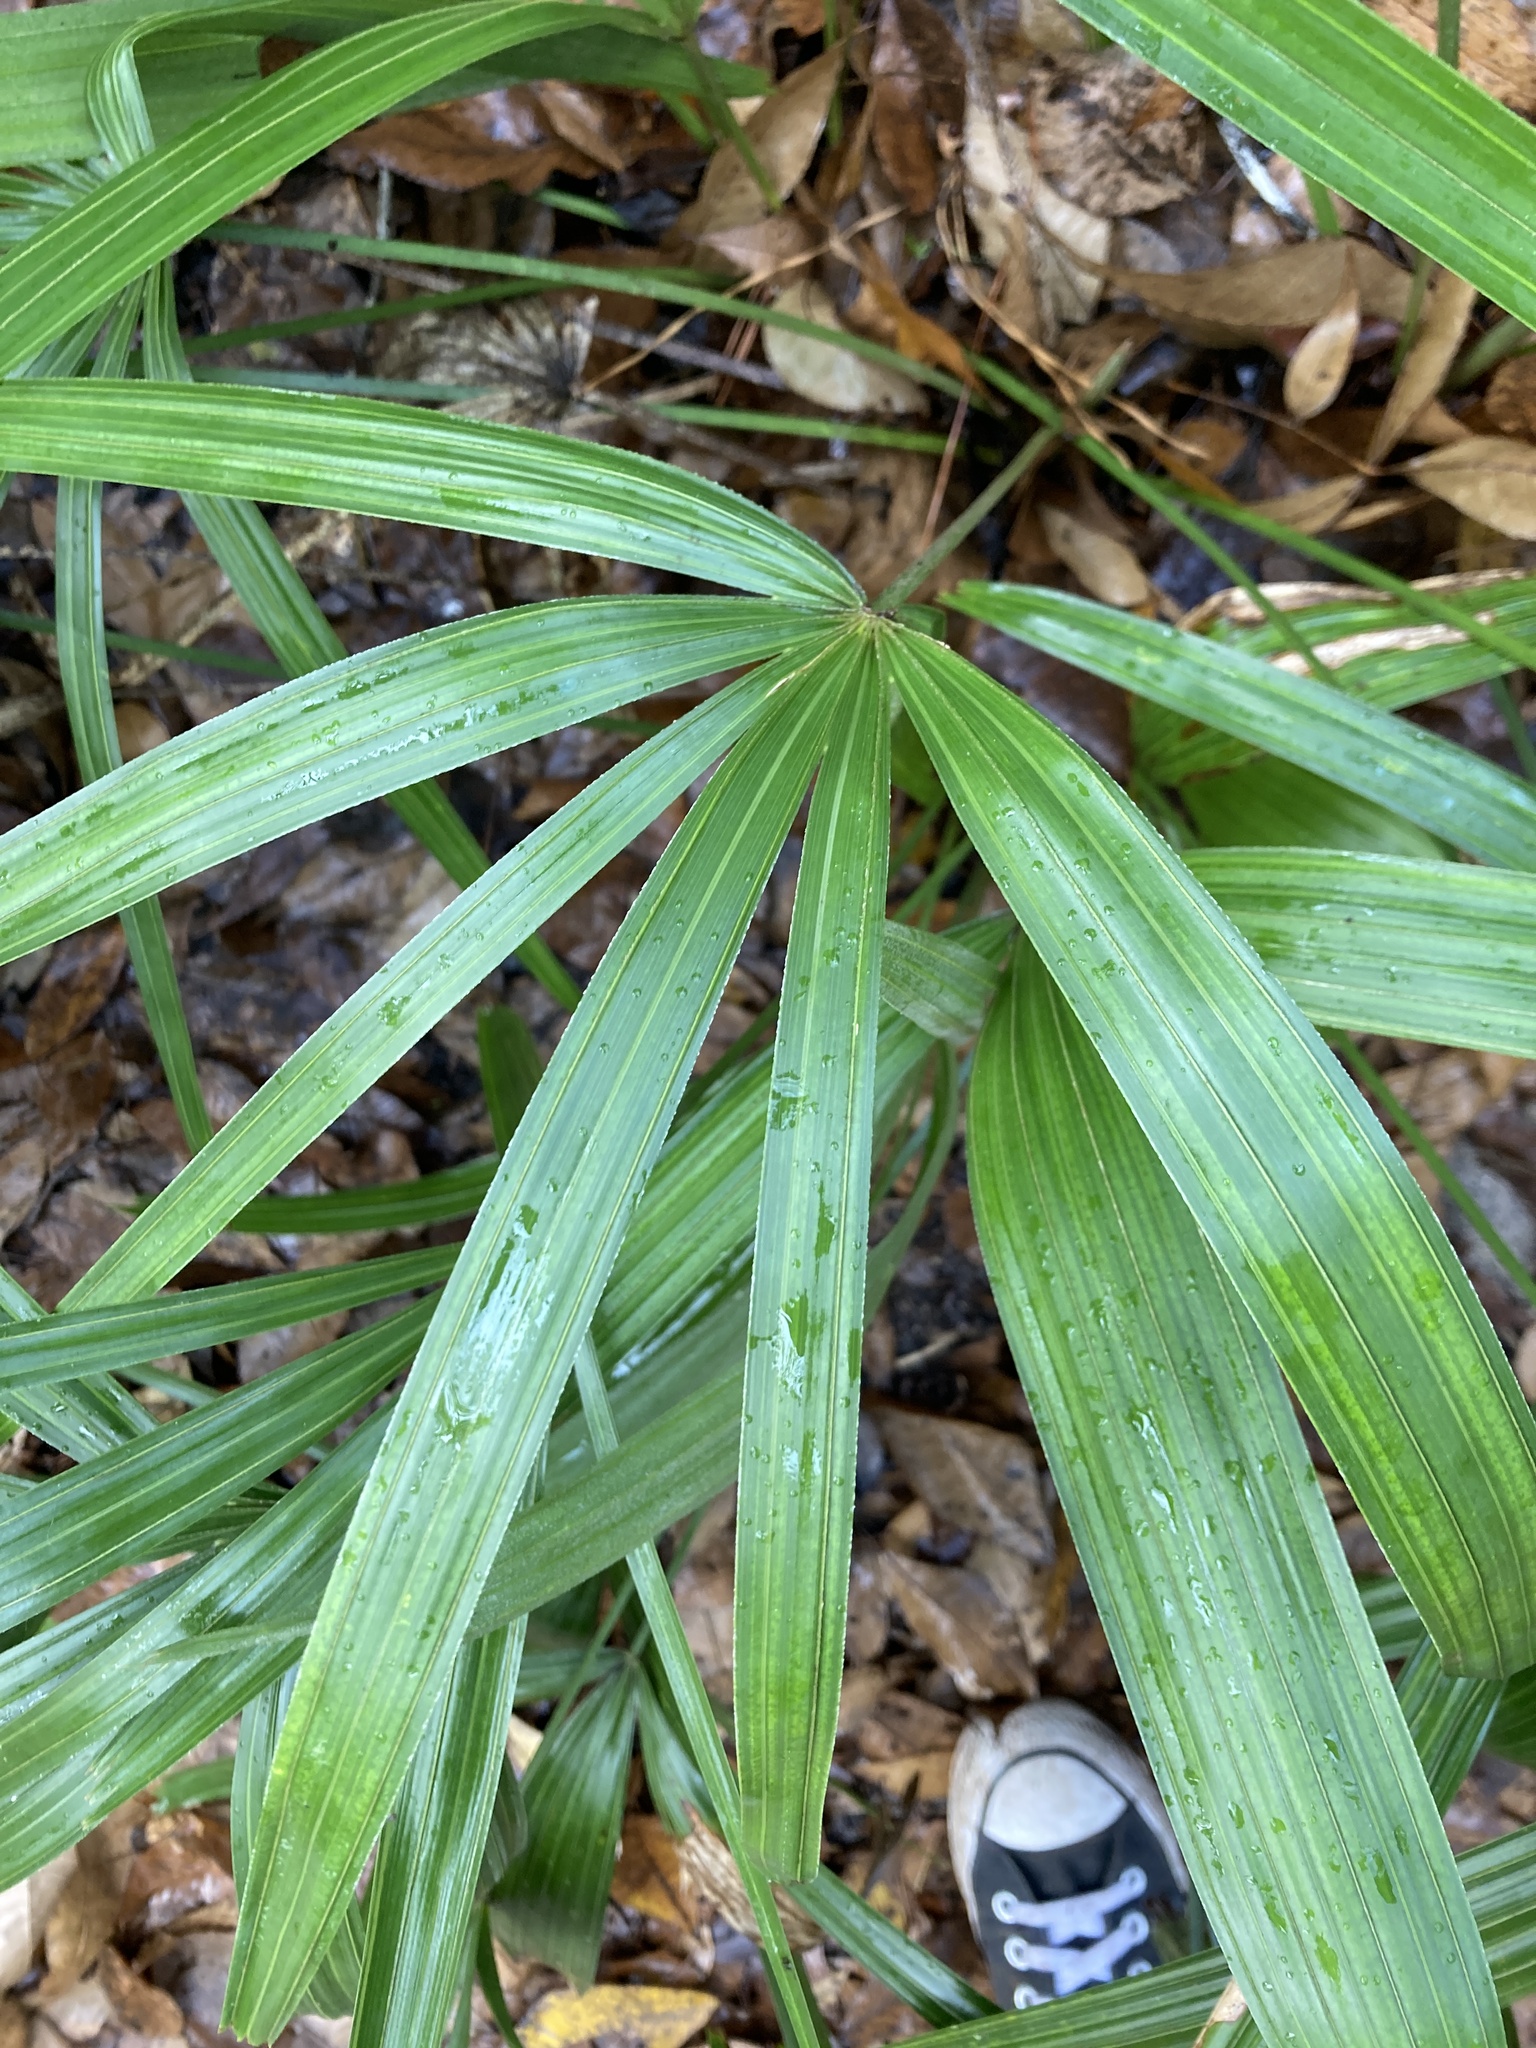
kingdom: Plantae
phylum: Tracheophyta
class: Liliopsida
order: Arecales
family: Arecaceae
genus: Rhapidophyllum
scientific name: Rhapidophyllum hystrix
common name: Porcupine palm
